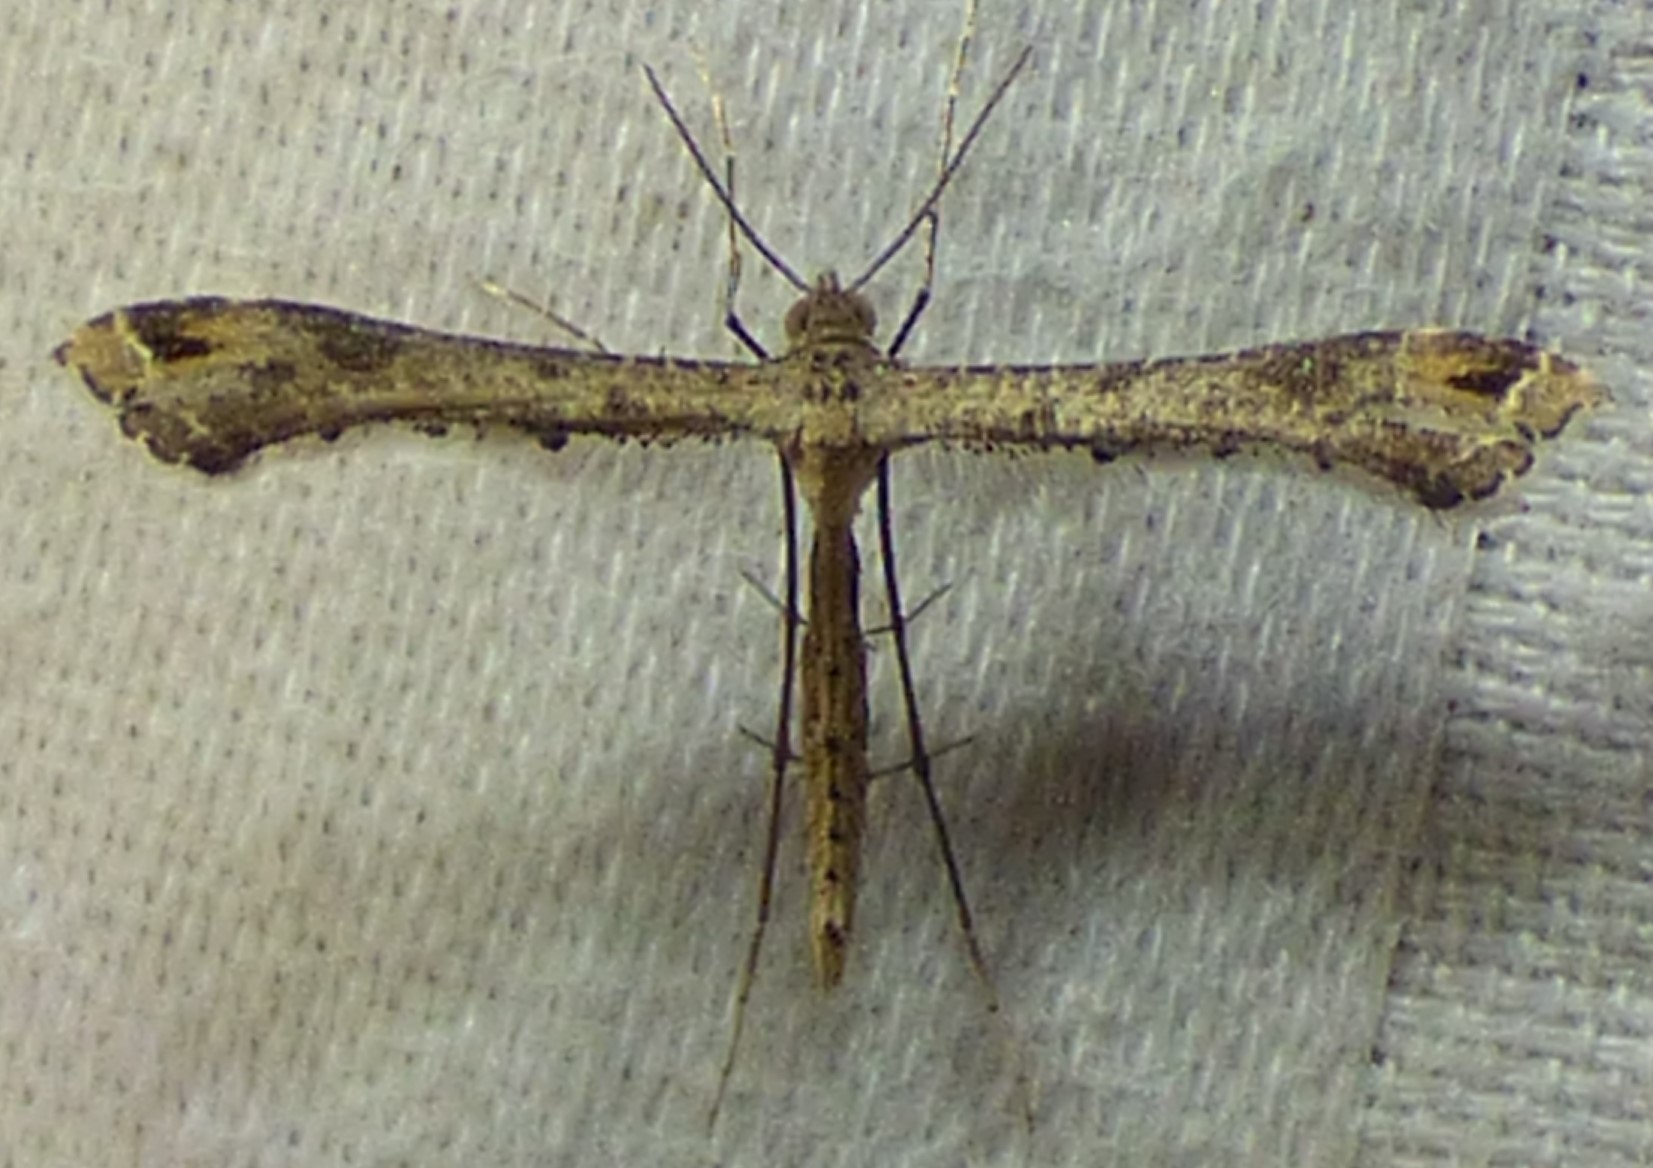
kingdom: Animalia
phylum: Arthropoda
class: Insecta
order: Lepidoptera
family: Pterophoridae
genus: Stenoptilodes
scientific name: Stenoptilodes
